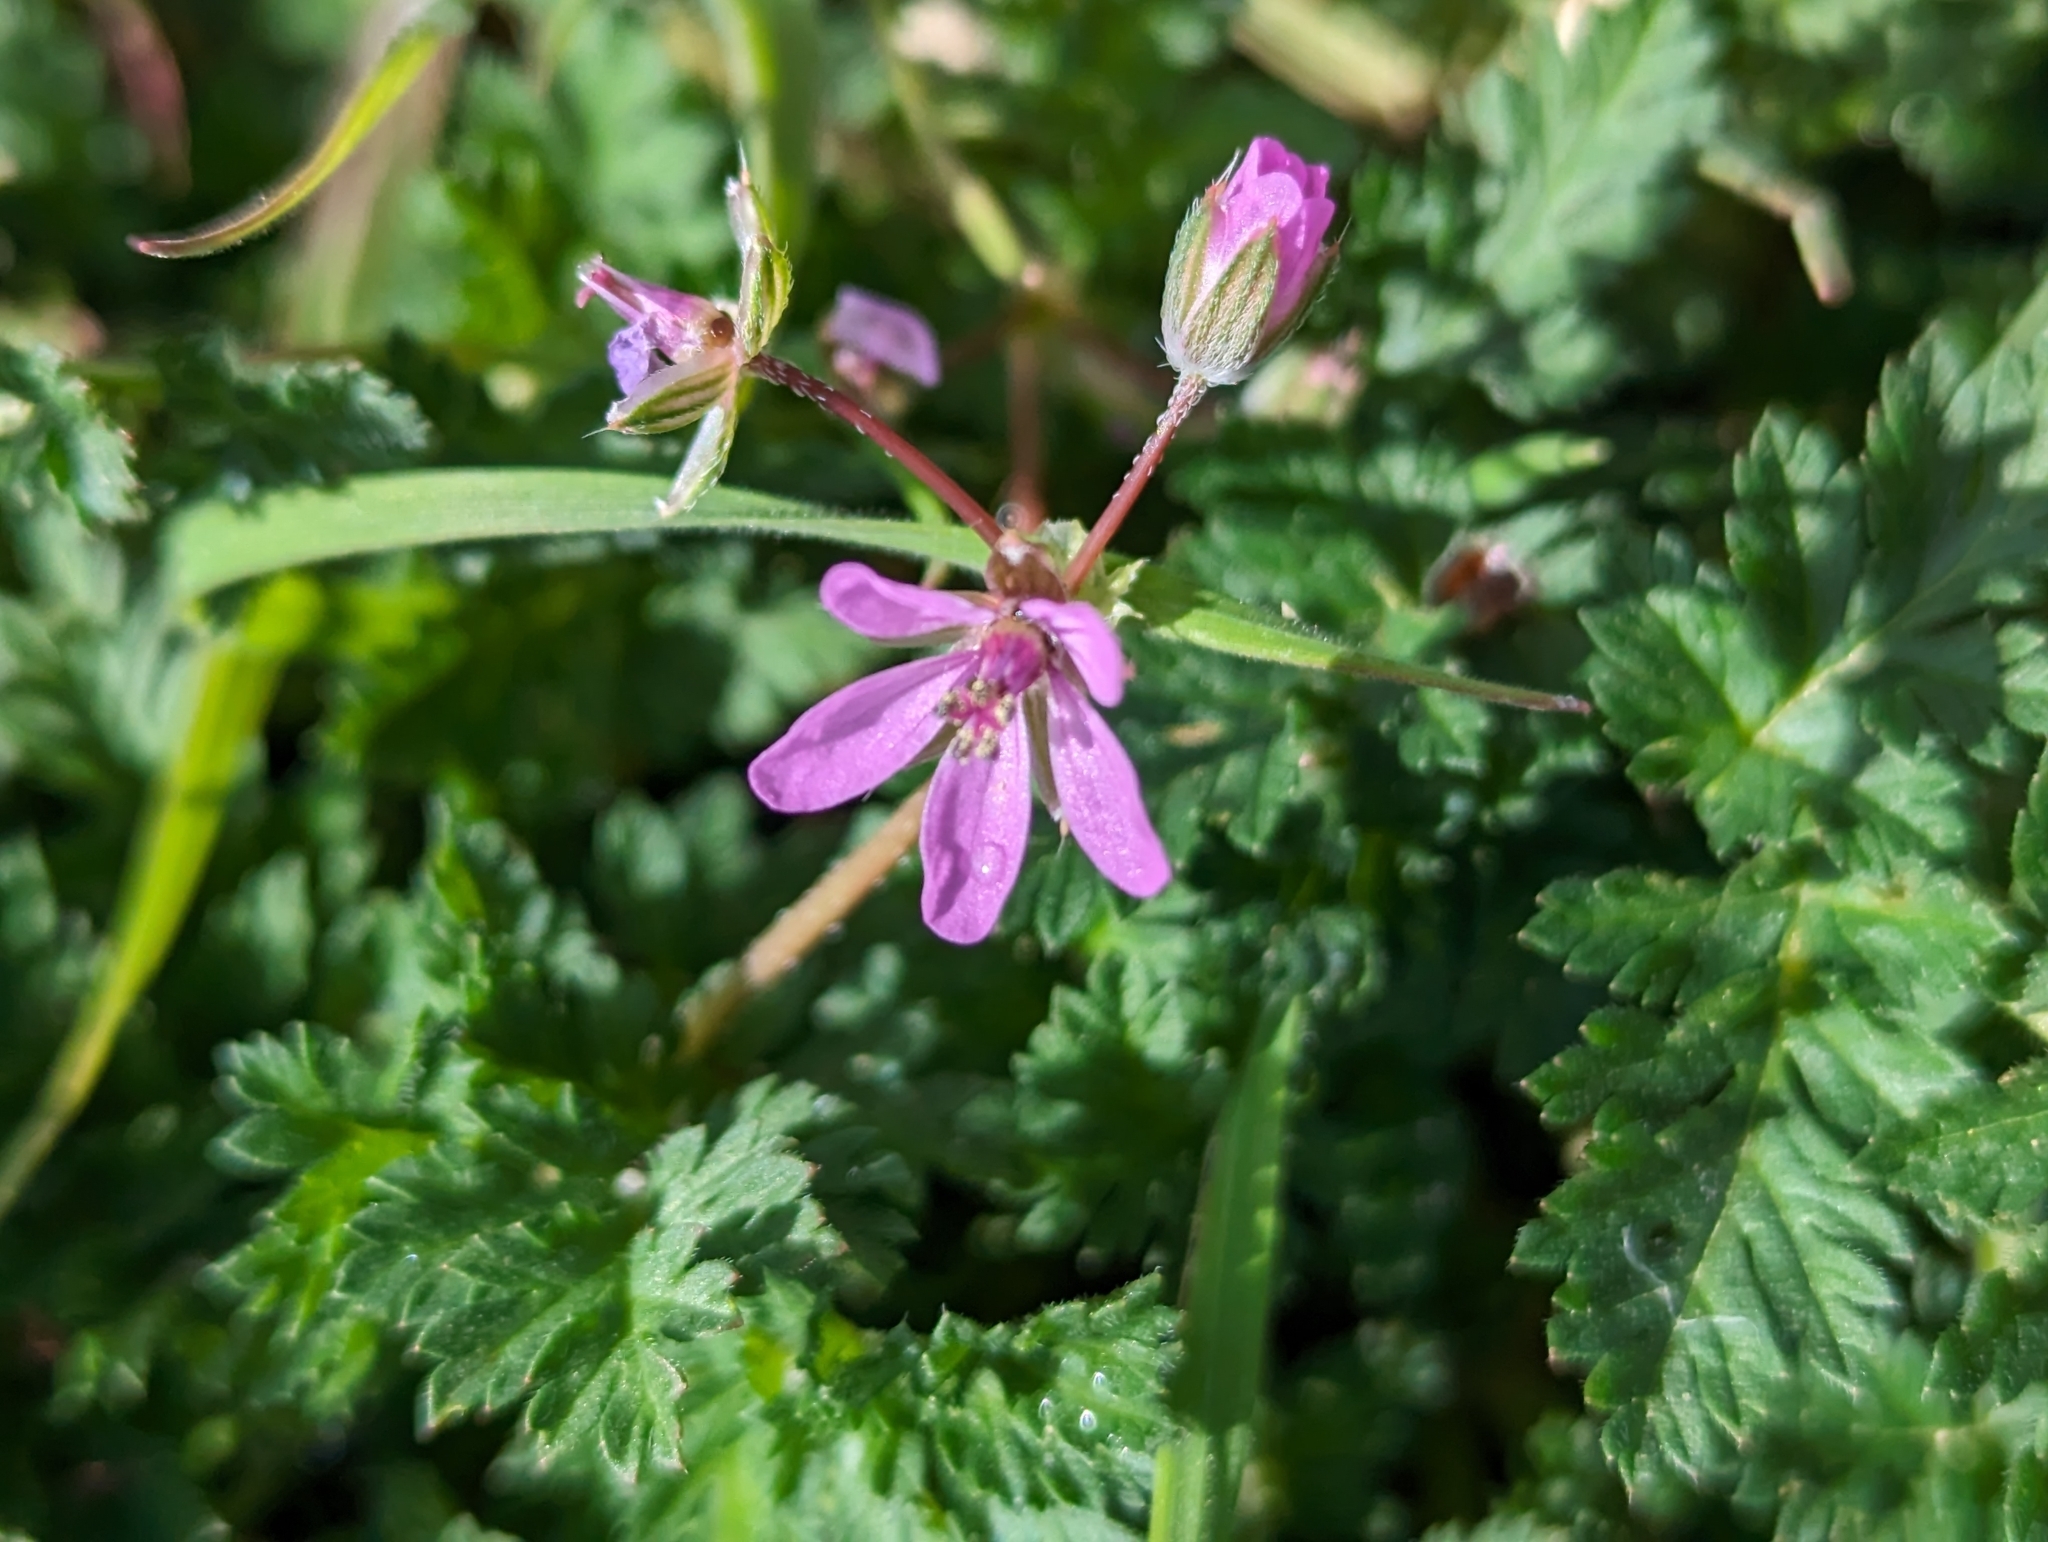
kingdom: Plantae
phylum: Tracheophyta
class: Magnoliopsida
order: Geraniales
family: Geraniaceae
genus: Erodium
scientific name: Erodium cicutarium
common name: Common stork's-bill
